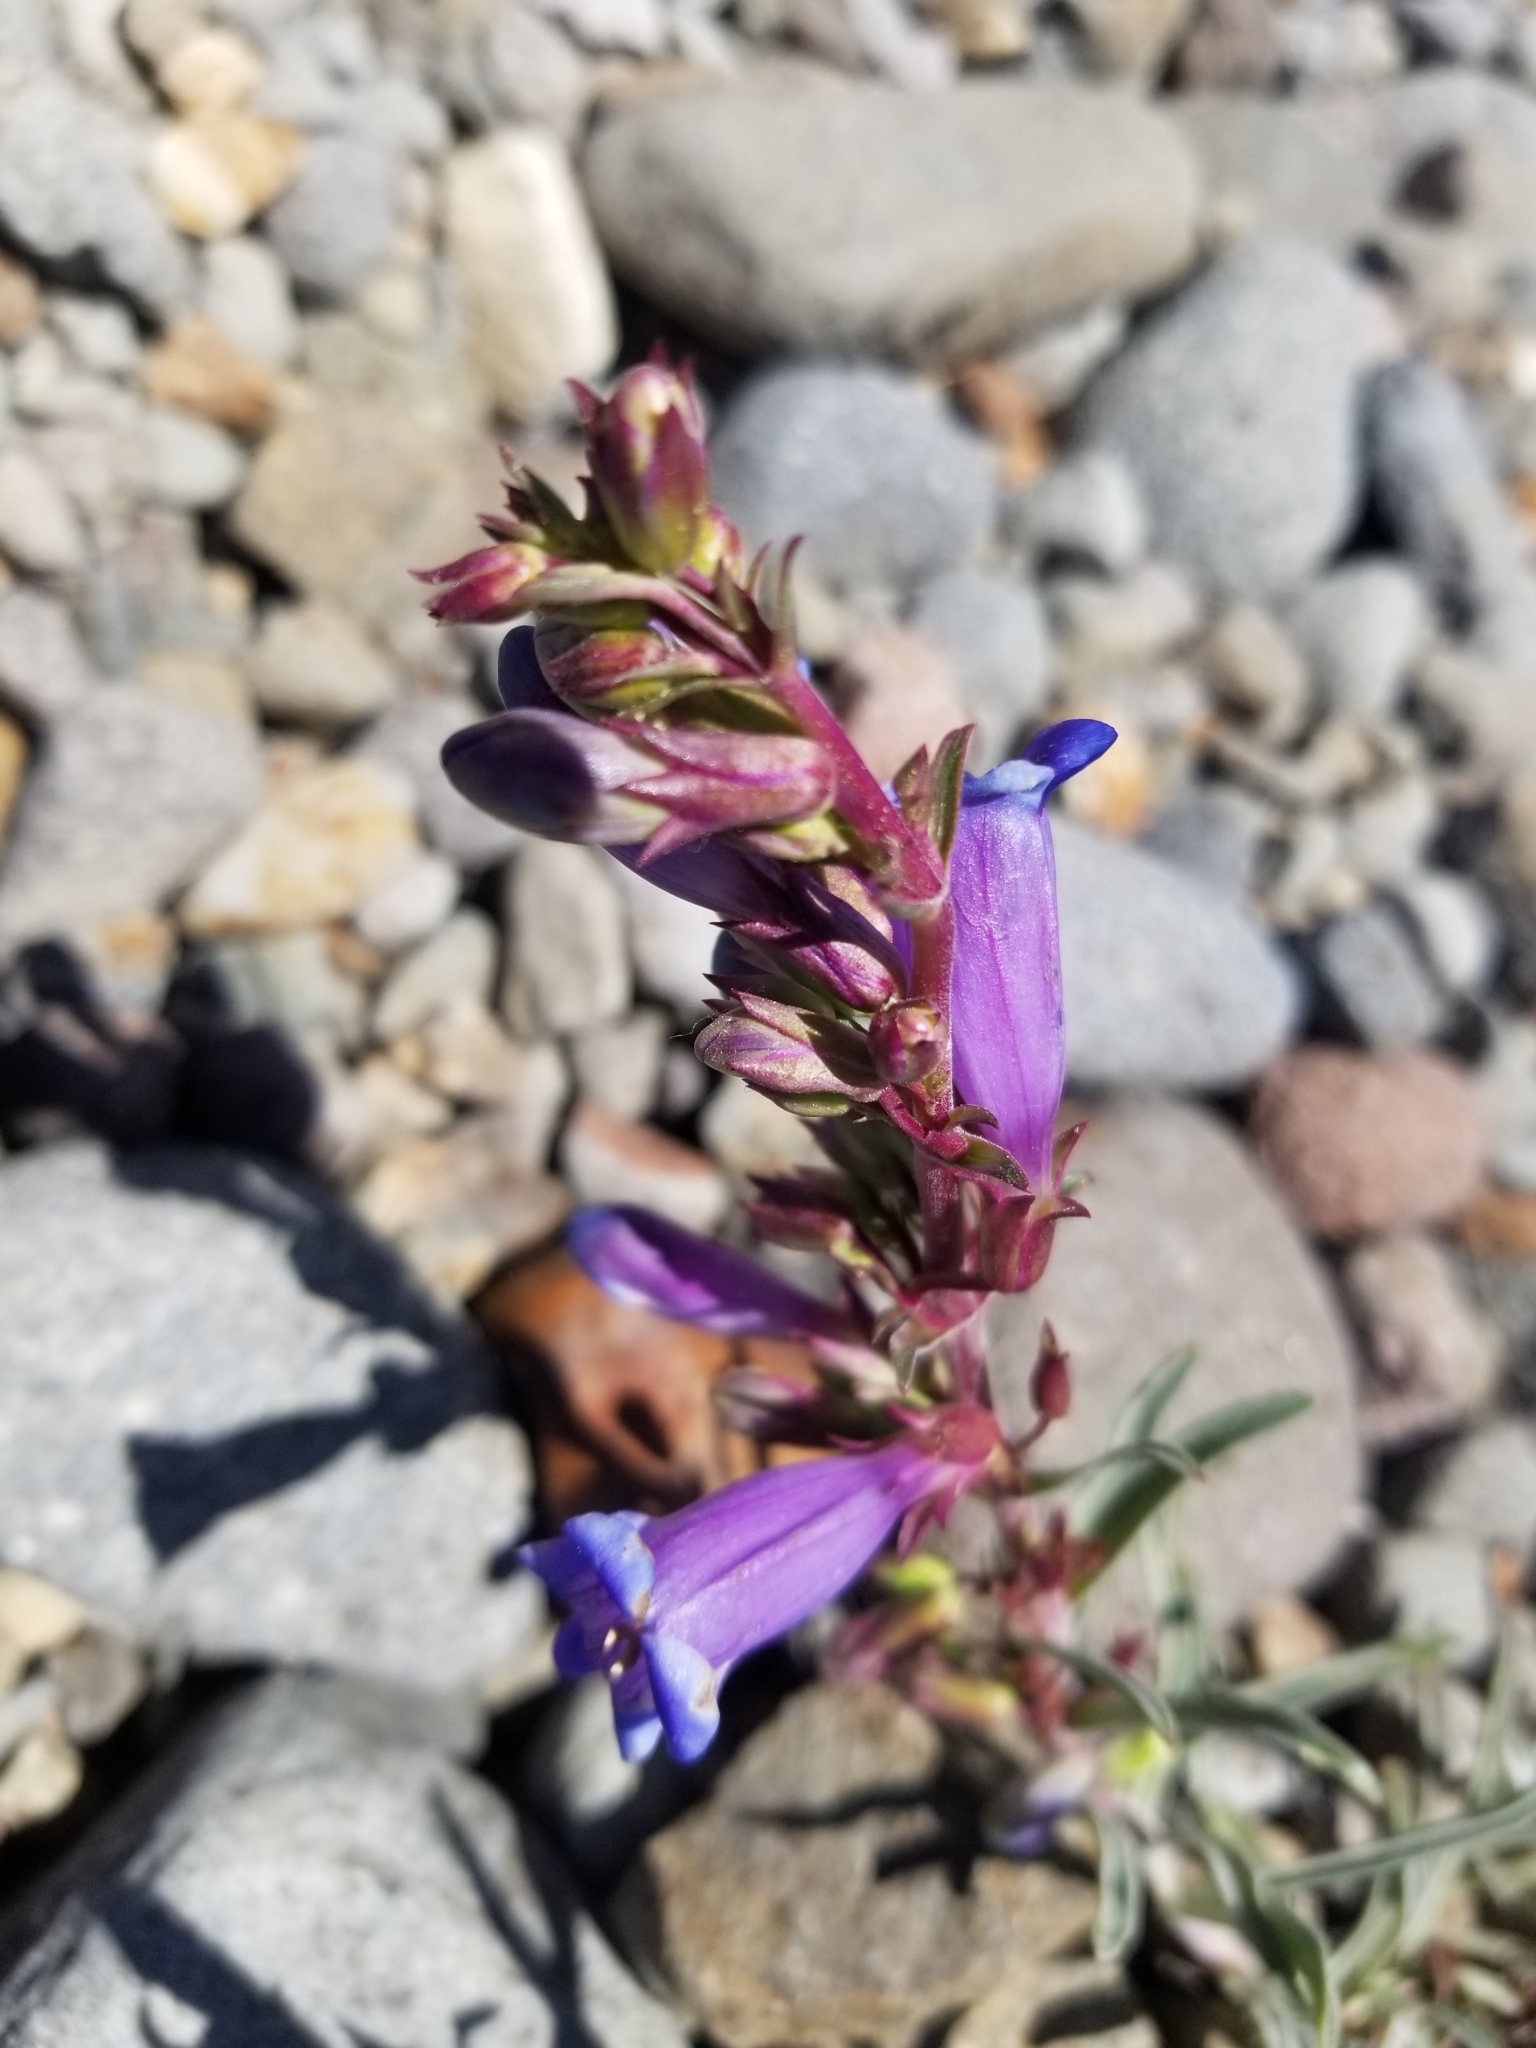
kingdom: Plantae
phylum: Tracheophyta
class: Magnoliopsida
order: Lamiales
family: Plantaginaceae
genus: Penstemon
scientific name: Penstemon speciosus
